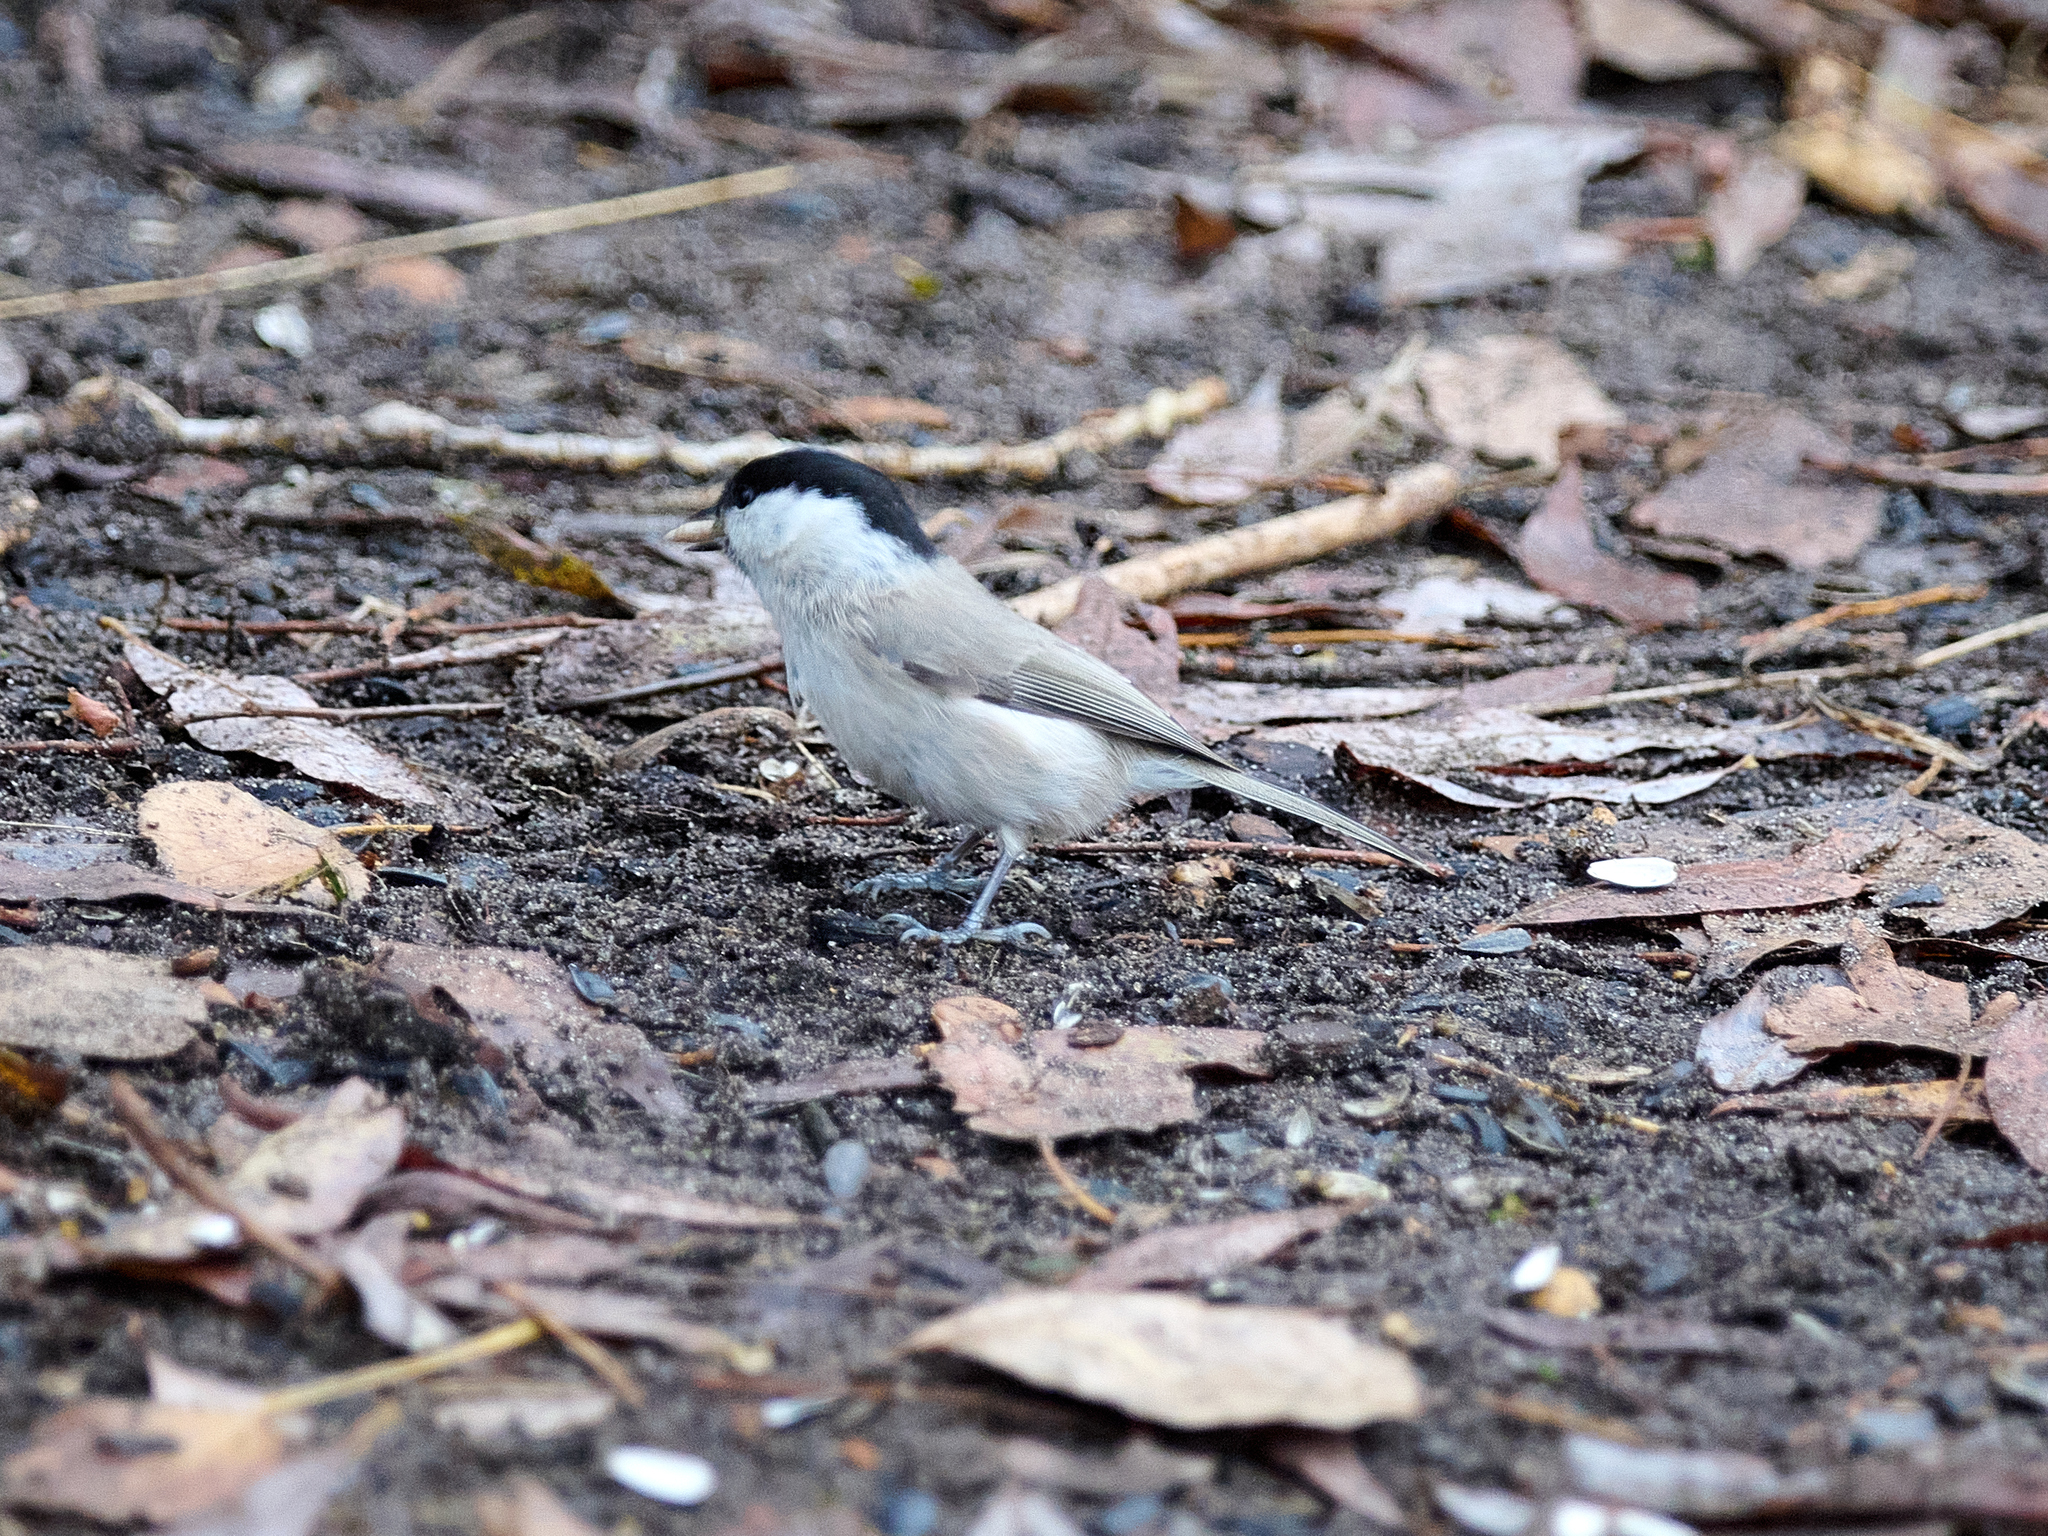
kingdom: Animalia
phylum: Chordata
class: Aves
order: Passeriformes
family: Paridae
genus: Poecile
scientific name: Poecile palustris
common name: Marsh tit
